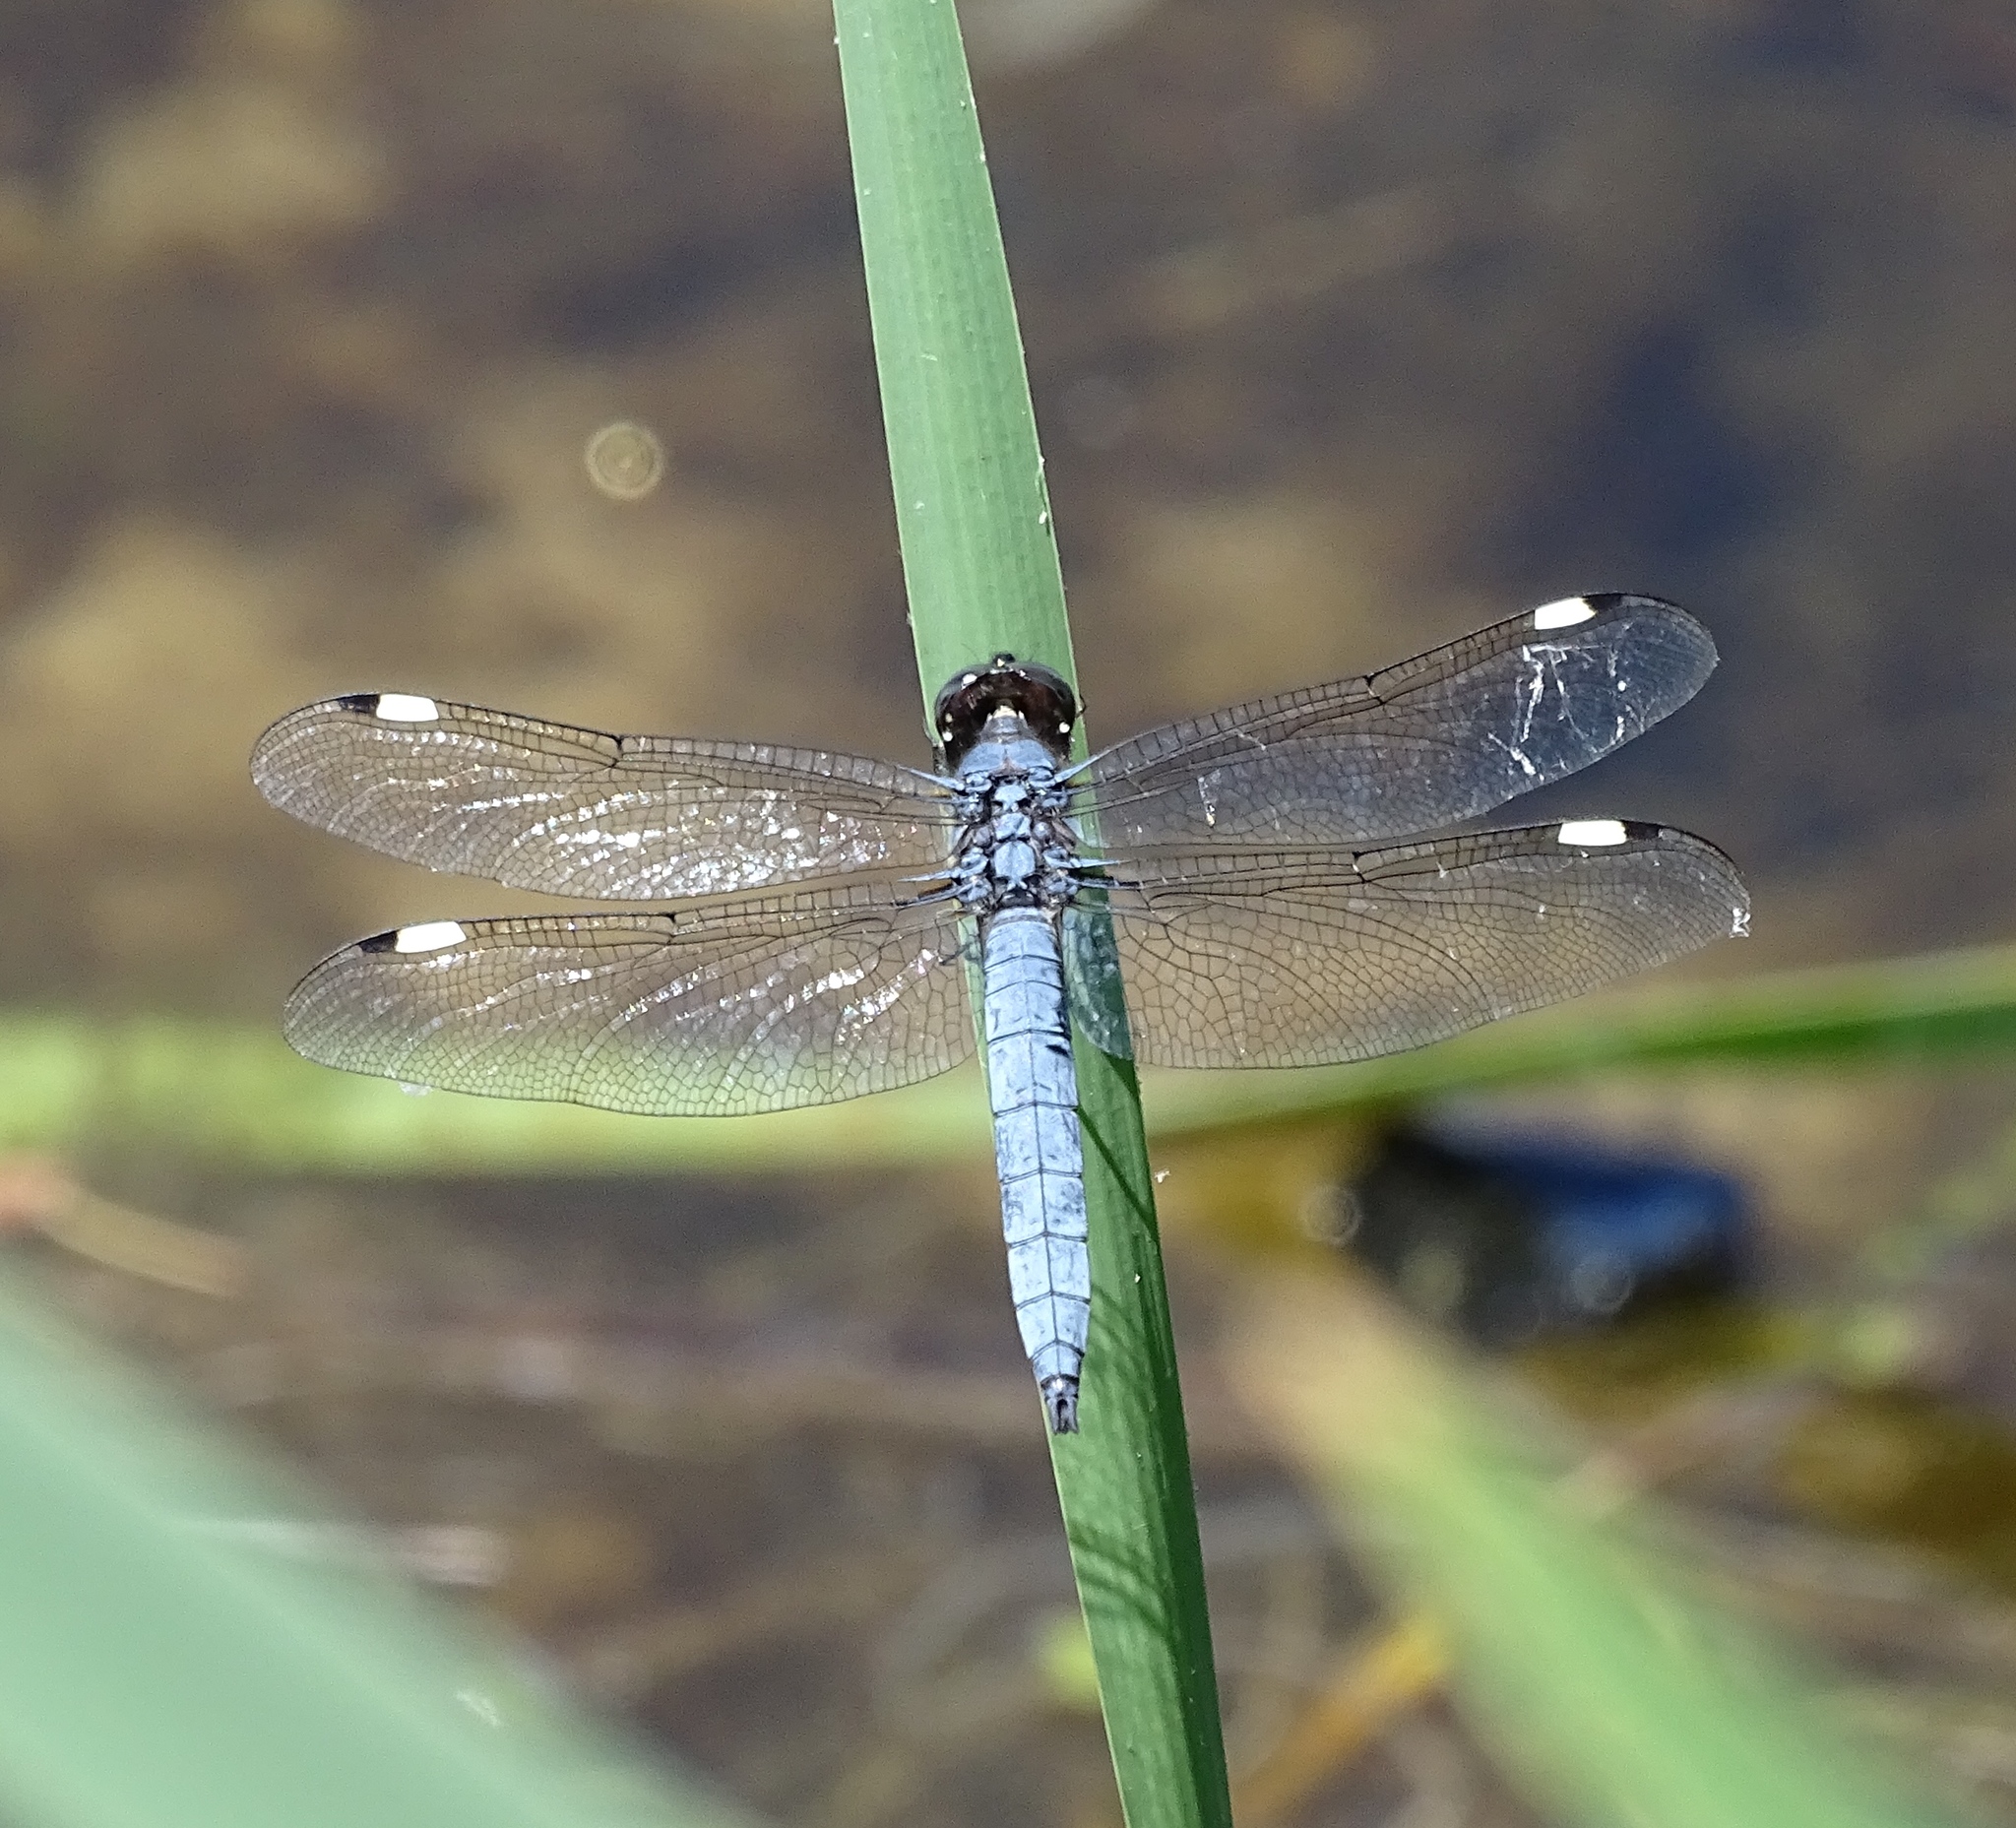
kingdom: Animalia
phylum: Arthropoda
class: Insecta
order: Odonata
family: Libellulidae
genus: Libellula
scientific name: Libellula cyanea
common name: Spangled skimmer
